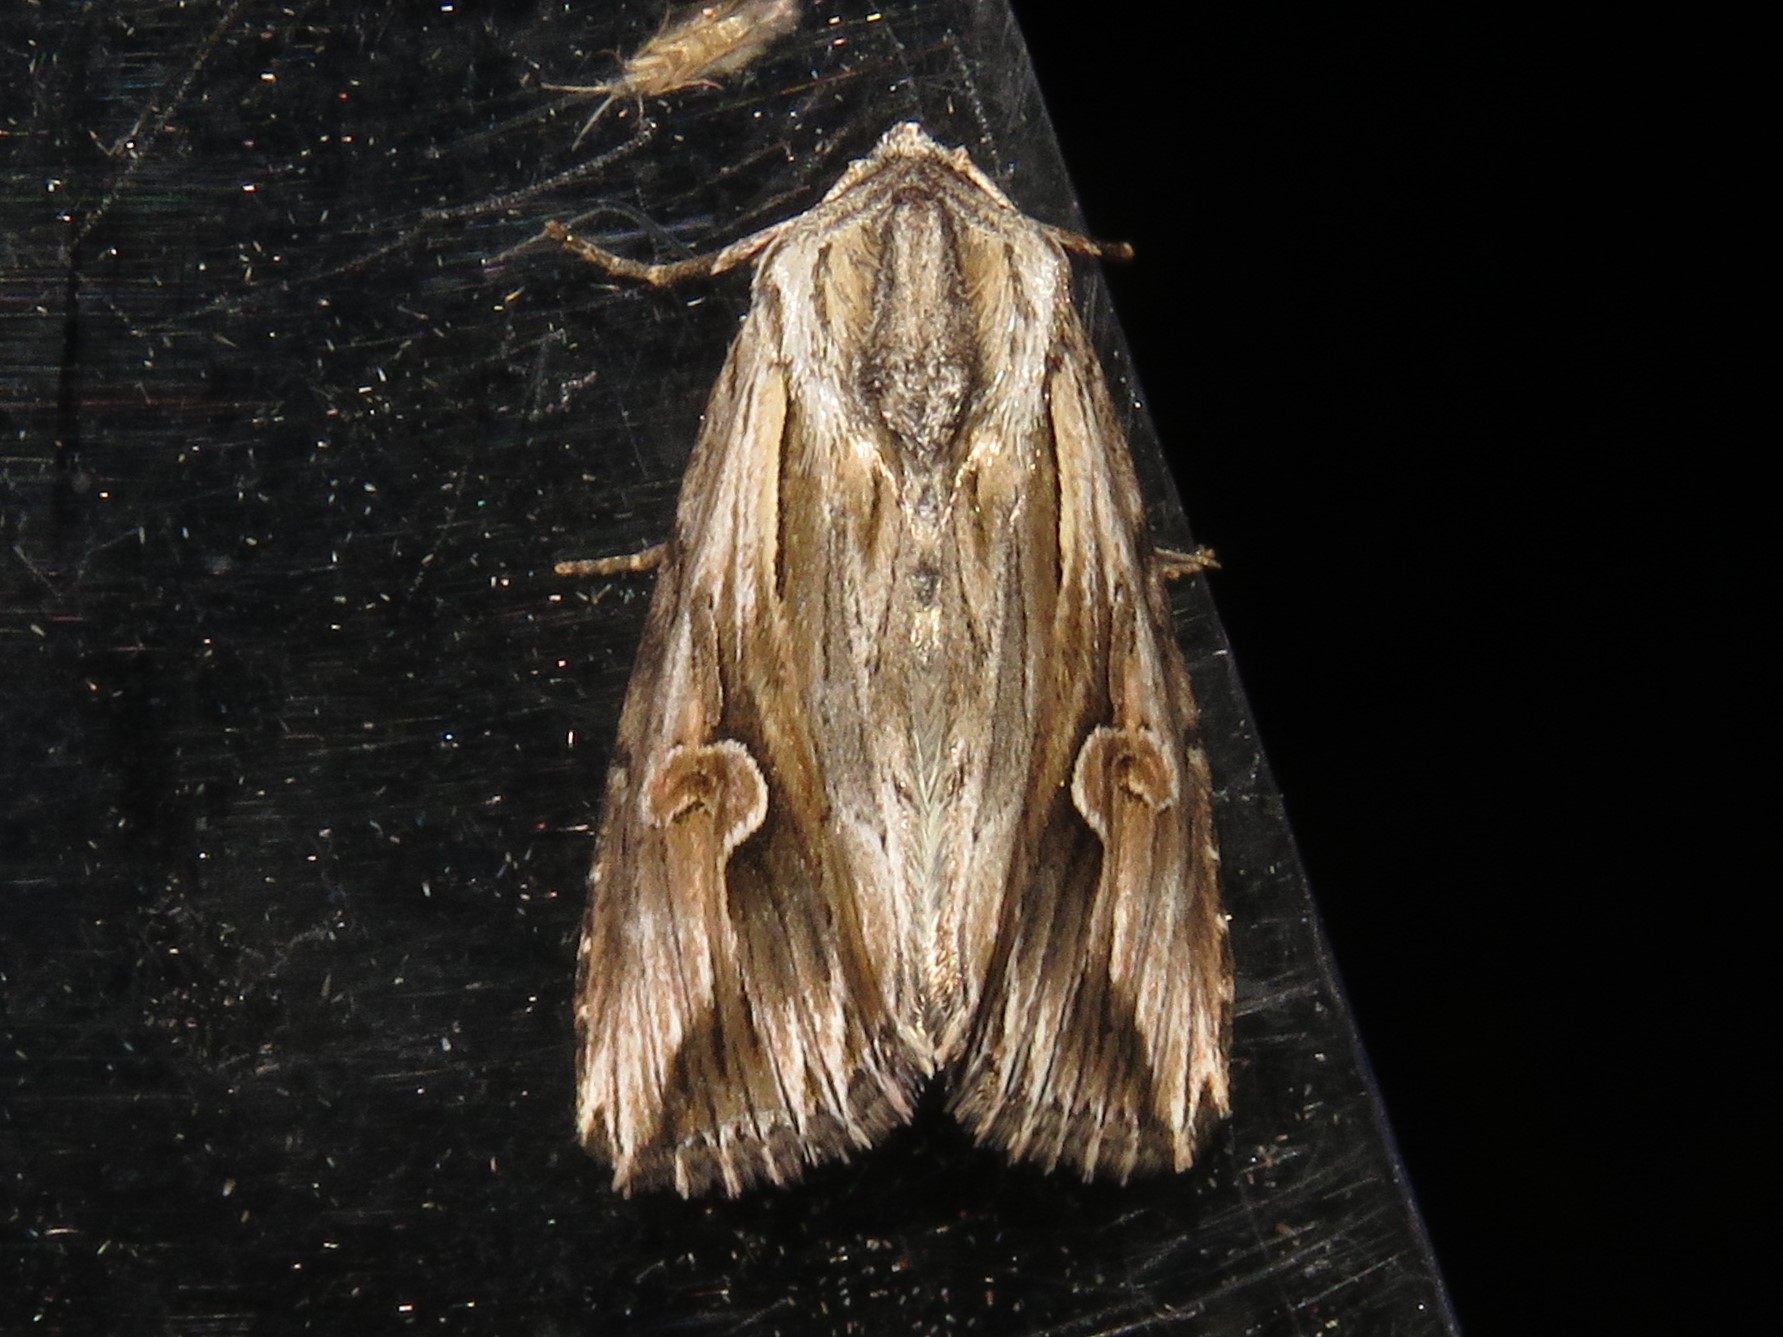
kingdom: Animalia
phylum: Arthropoda
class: Insecta
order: Lepidoptera
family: Noctuidae
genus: Nedra
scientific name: Nedra ramosula
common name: Gray half-spot
